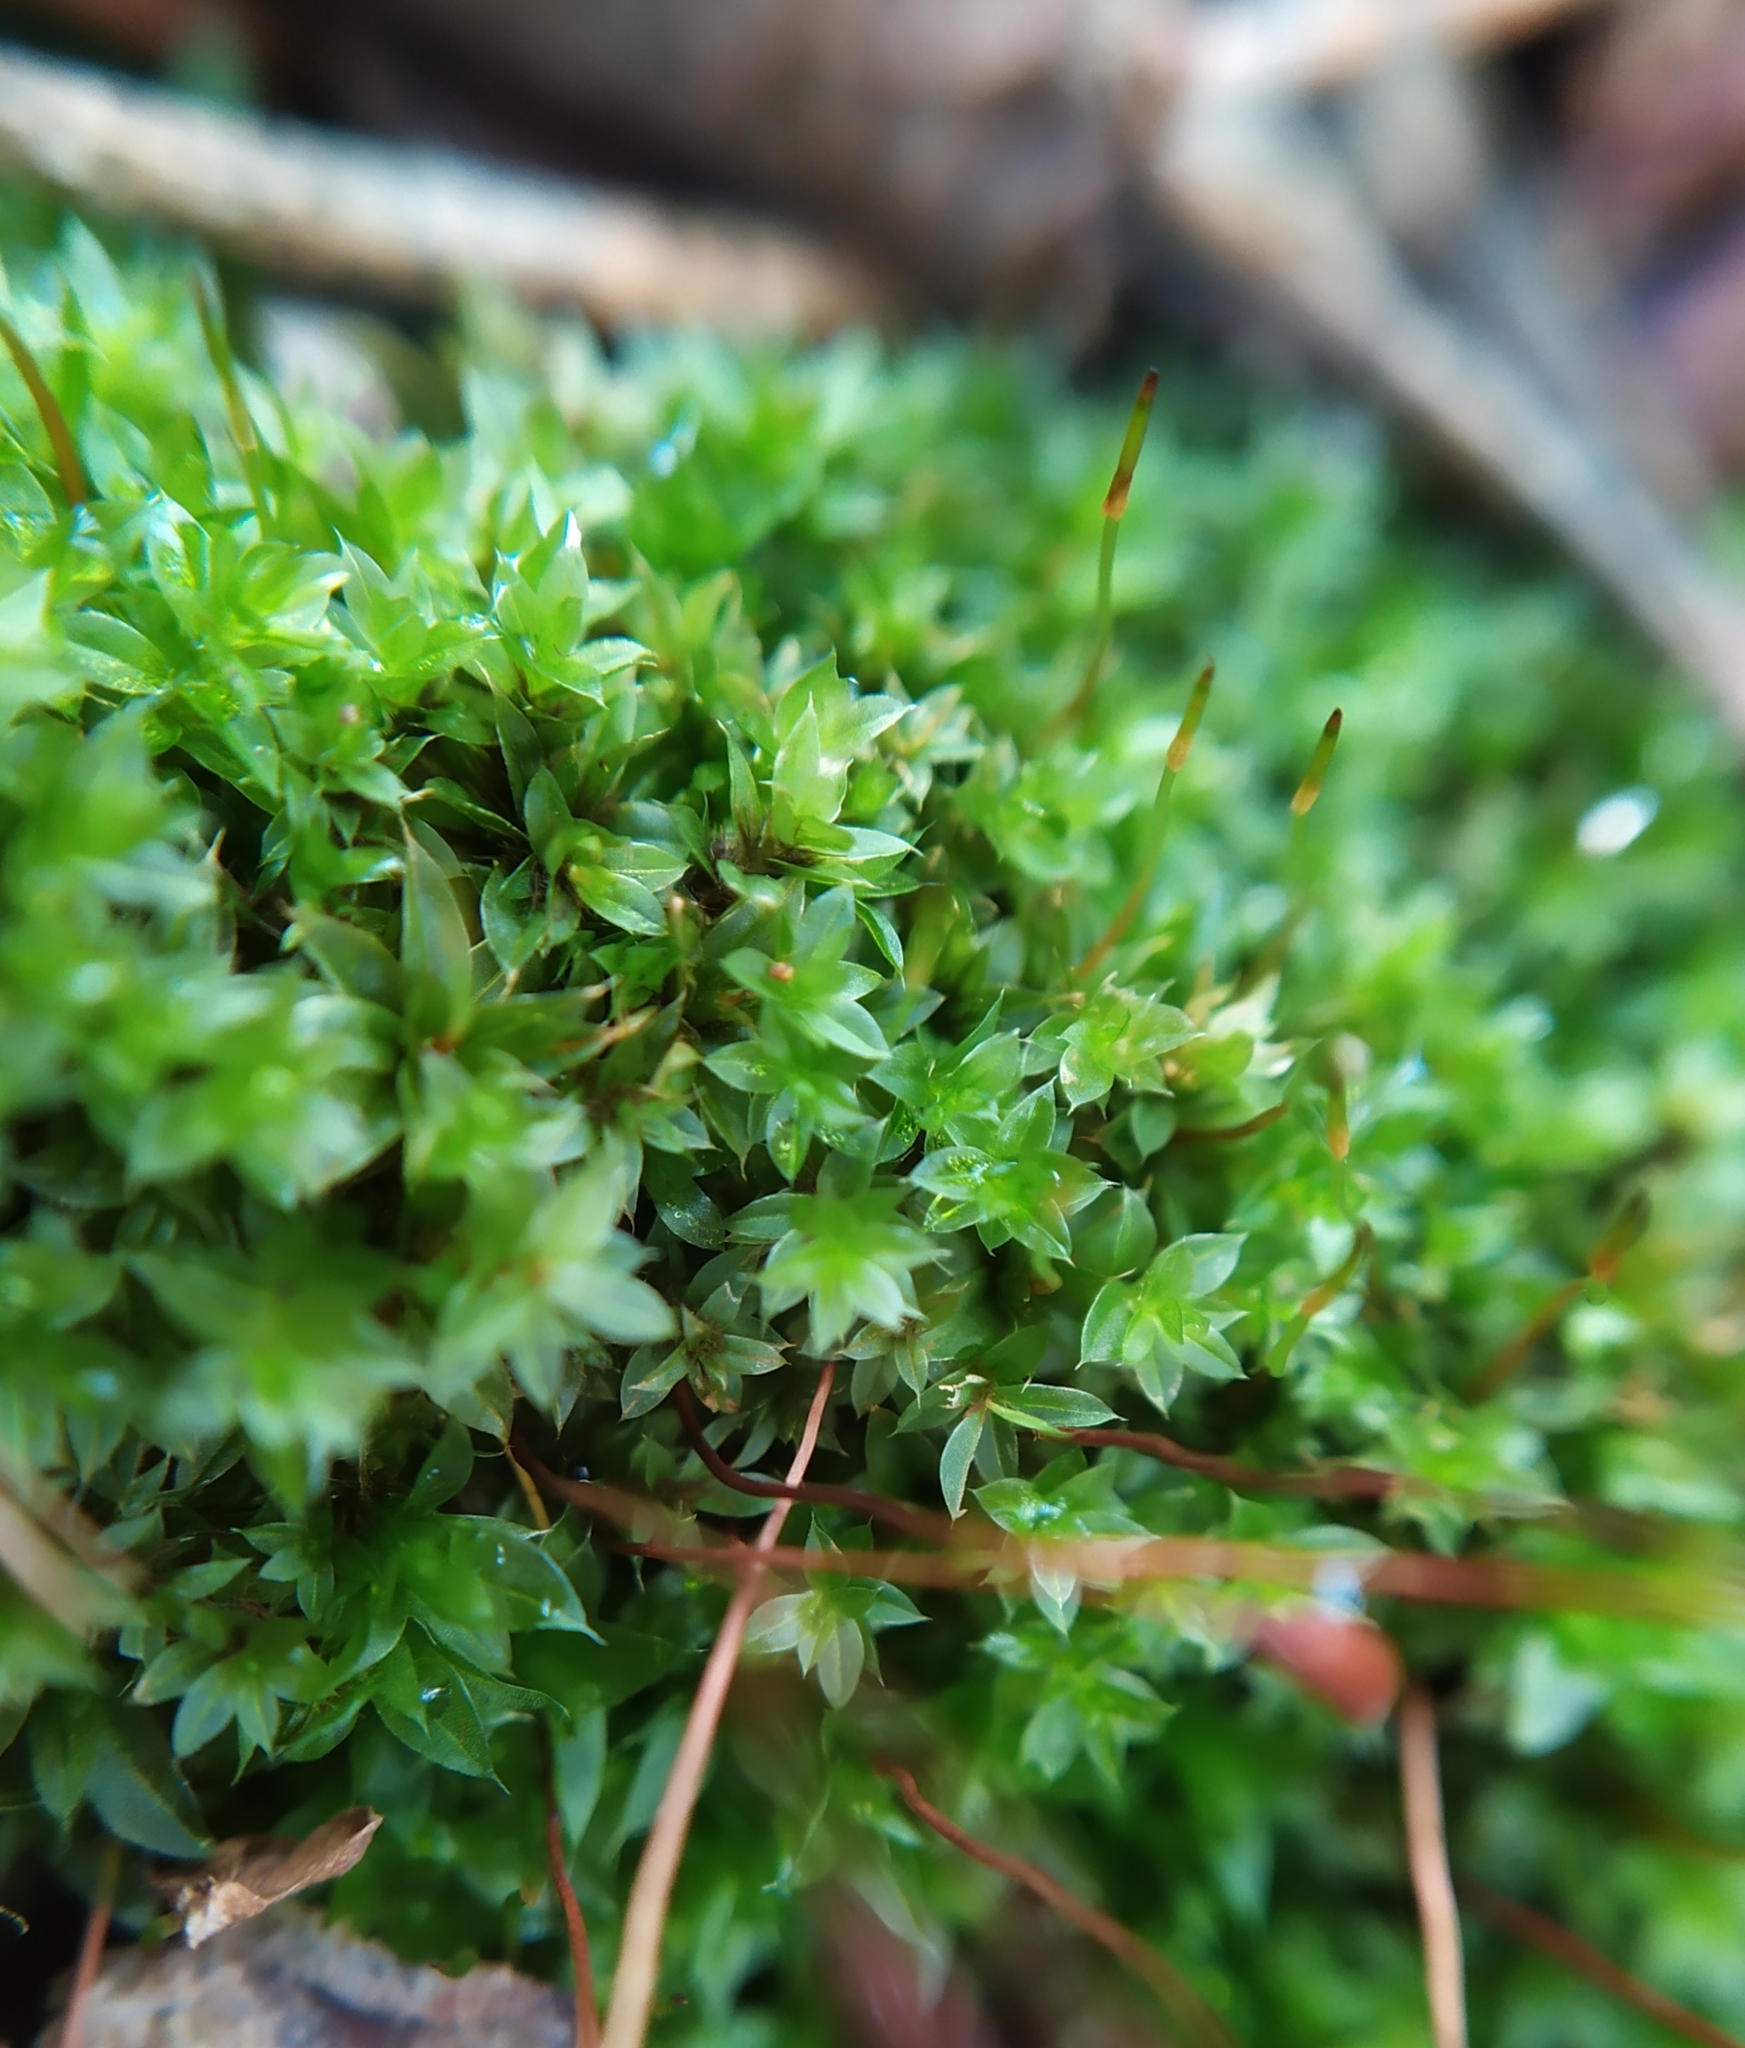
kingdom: Plantae
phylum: Bryophyta
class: Bryopsida
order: Bryales
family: Bryaceae
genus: Rosulabryum
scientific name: Rosulabryum capillare
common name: Capillary thread-moss
